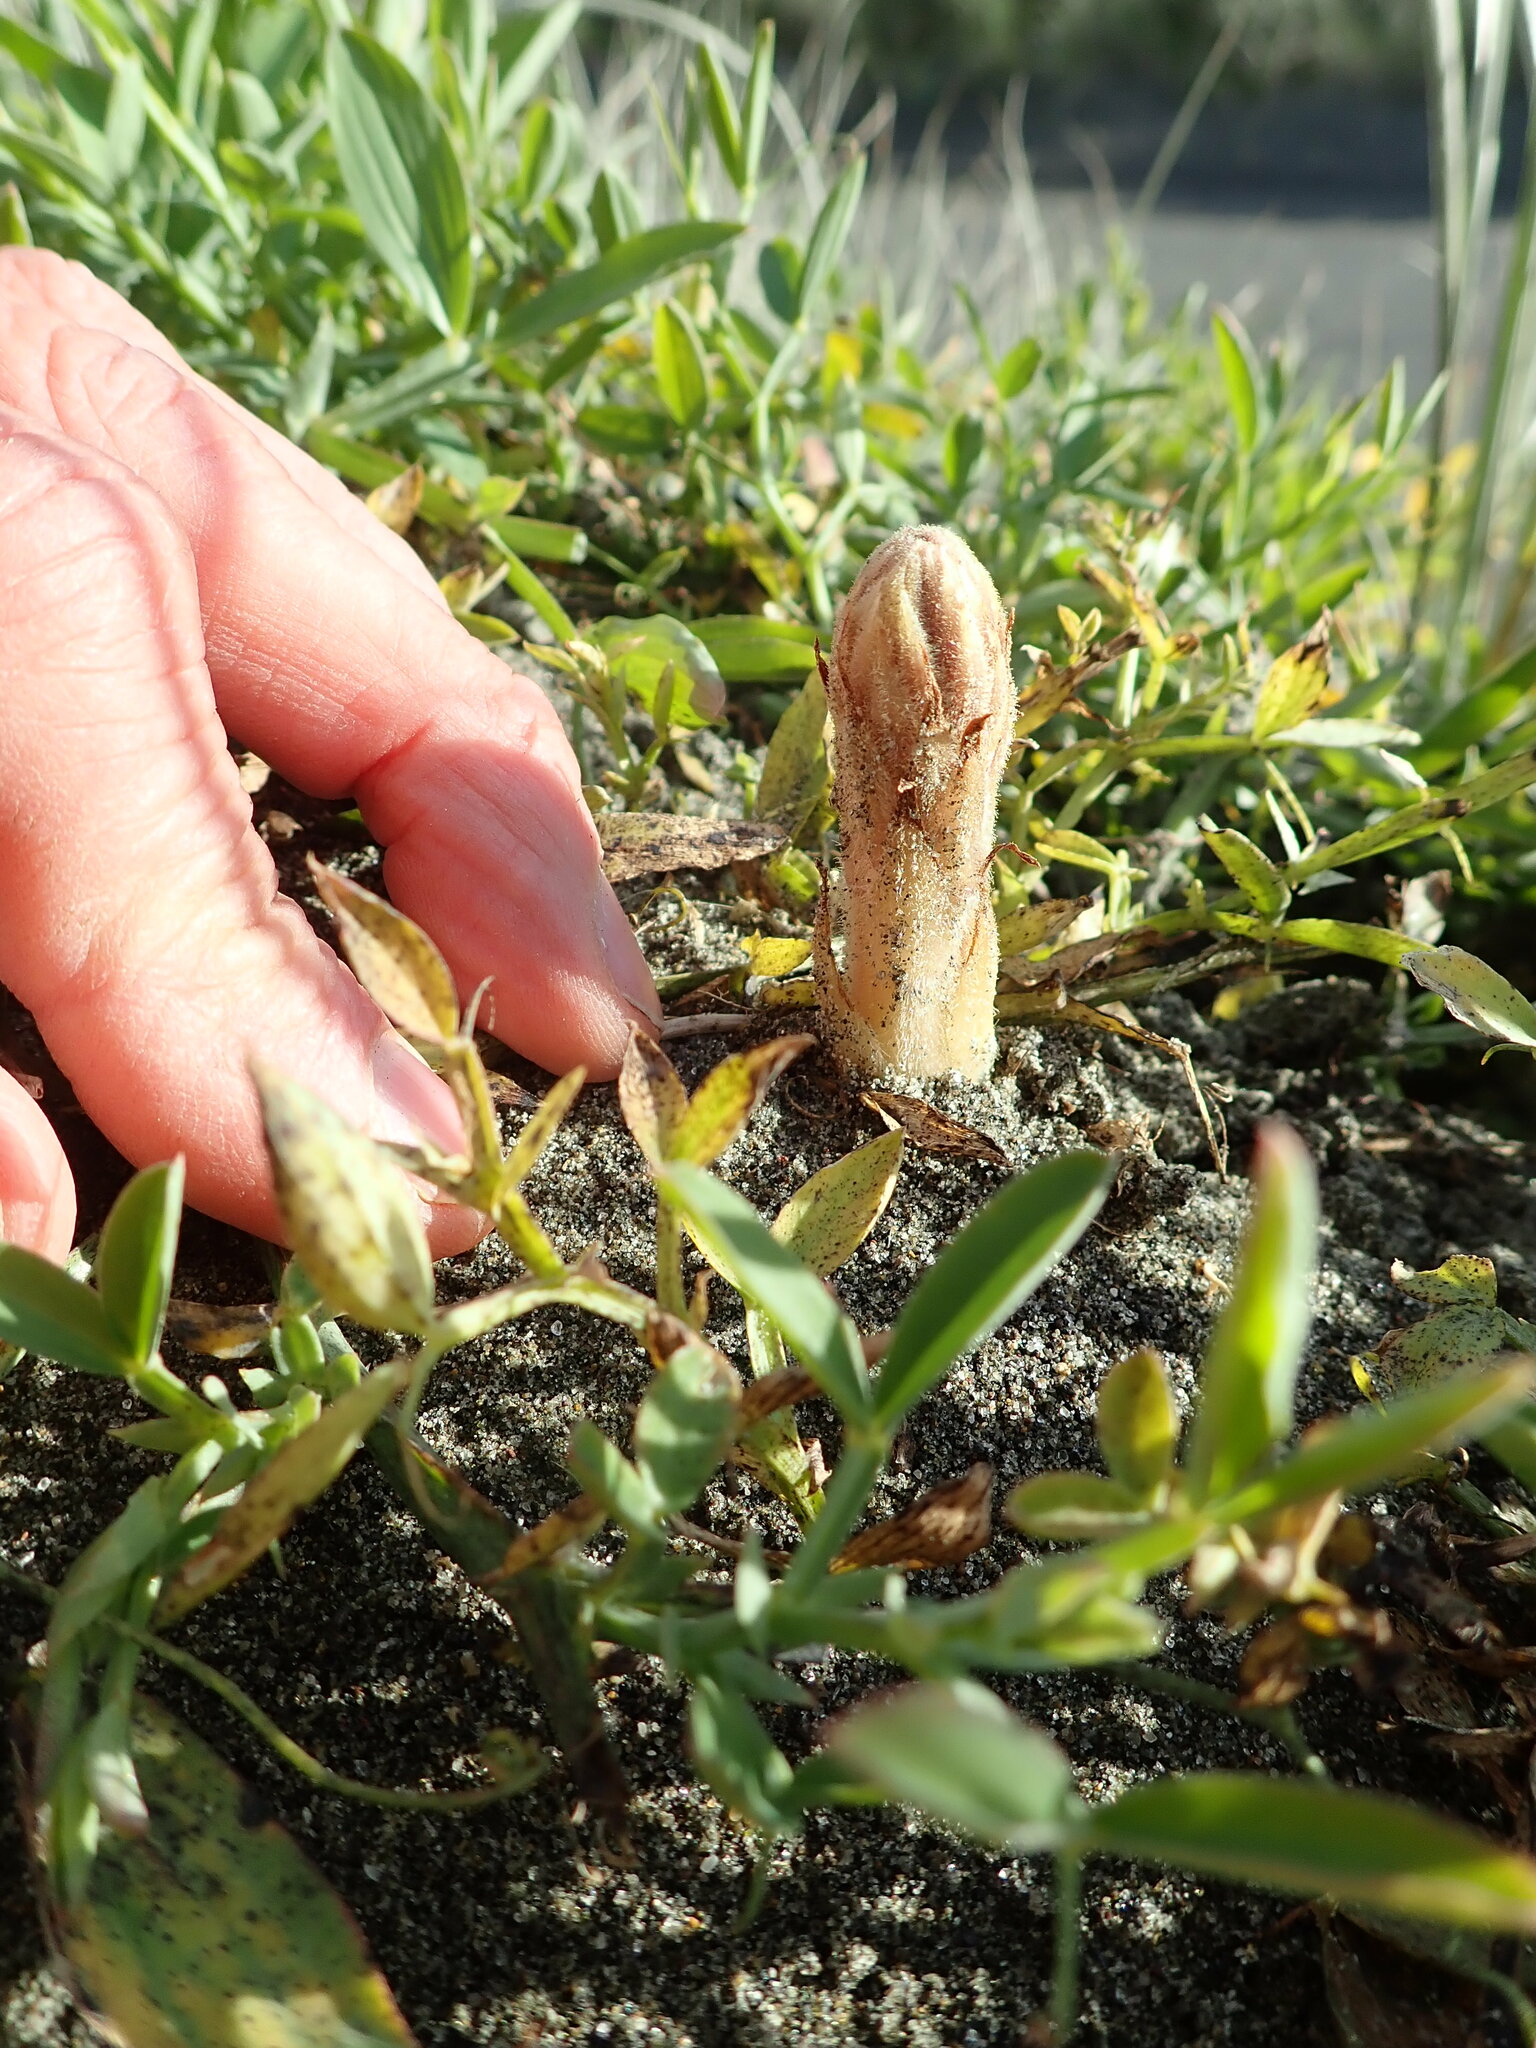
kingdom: Plantae
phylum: Tracheophyta
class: Magnoliopsida
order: Lamiales
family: Orobanchaceae
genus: Orobanche
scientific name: Orobanche minor
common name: Common broomrape
